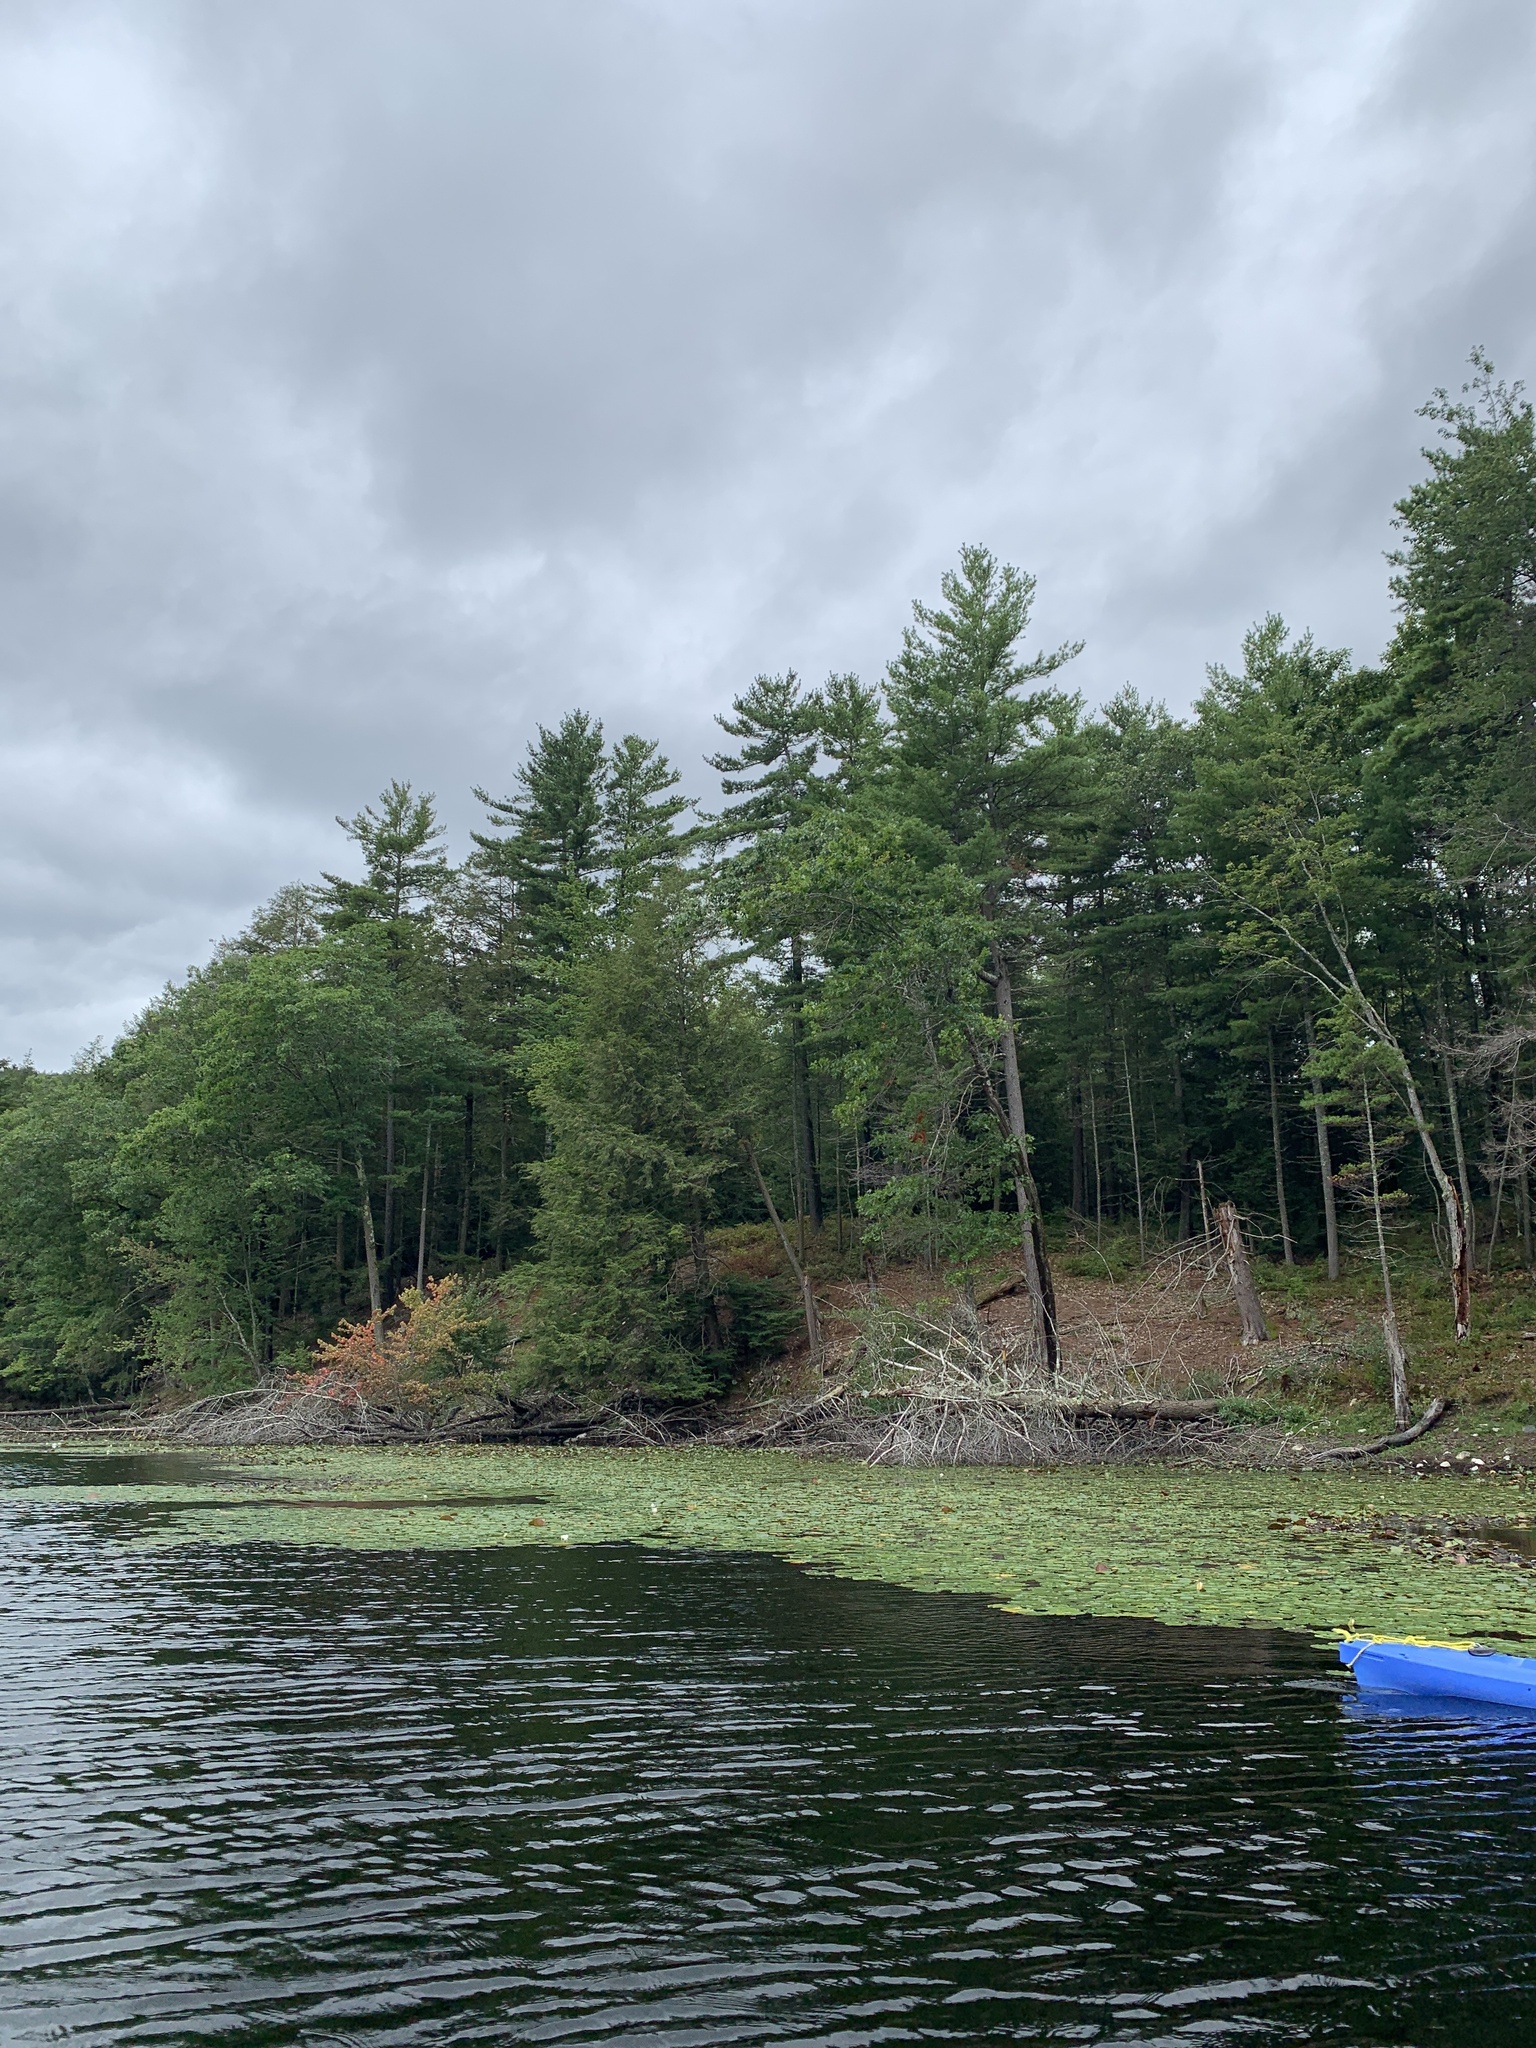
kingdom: Plantae
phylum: Tracheophyta
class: Pinopsida
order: Pinales
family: Pinaceae
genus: Pinus
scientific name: Pinus strobus
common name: Weymouth pine
